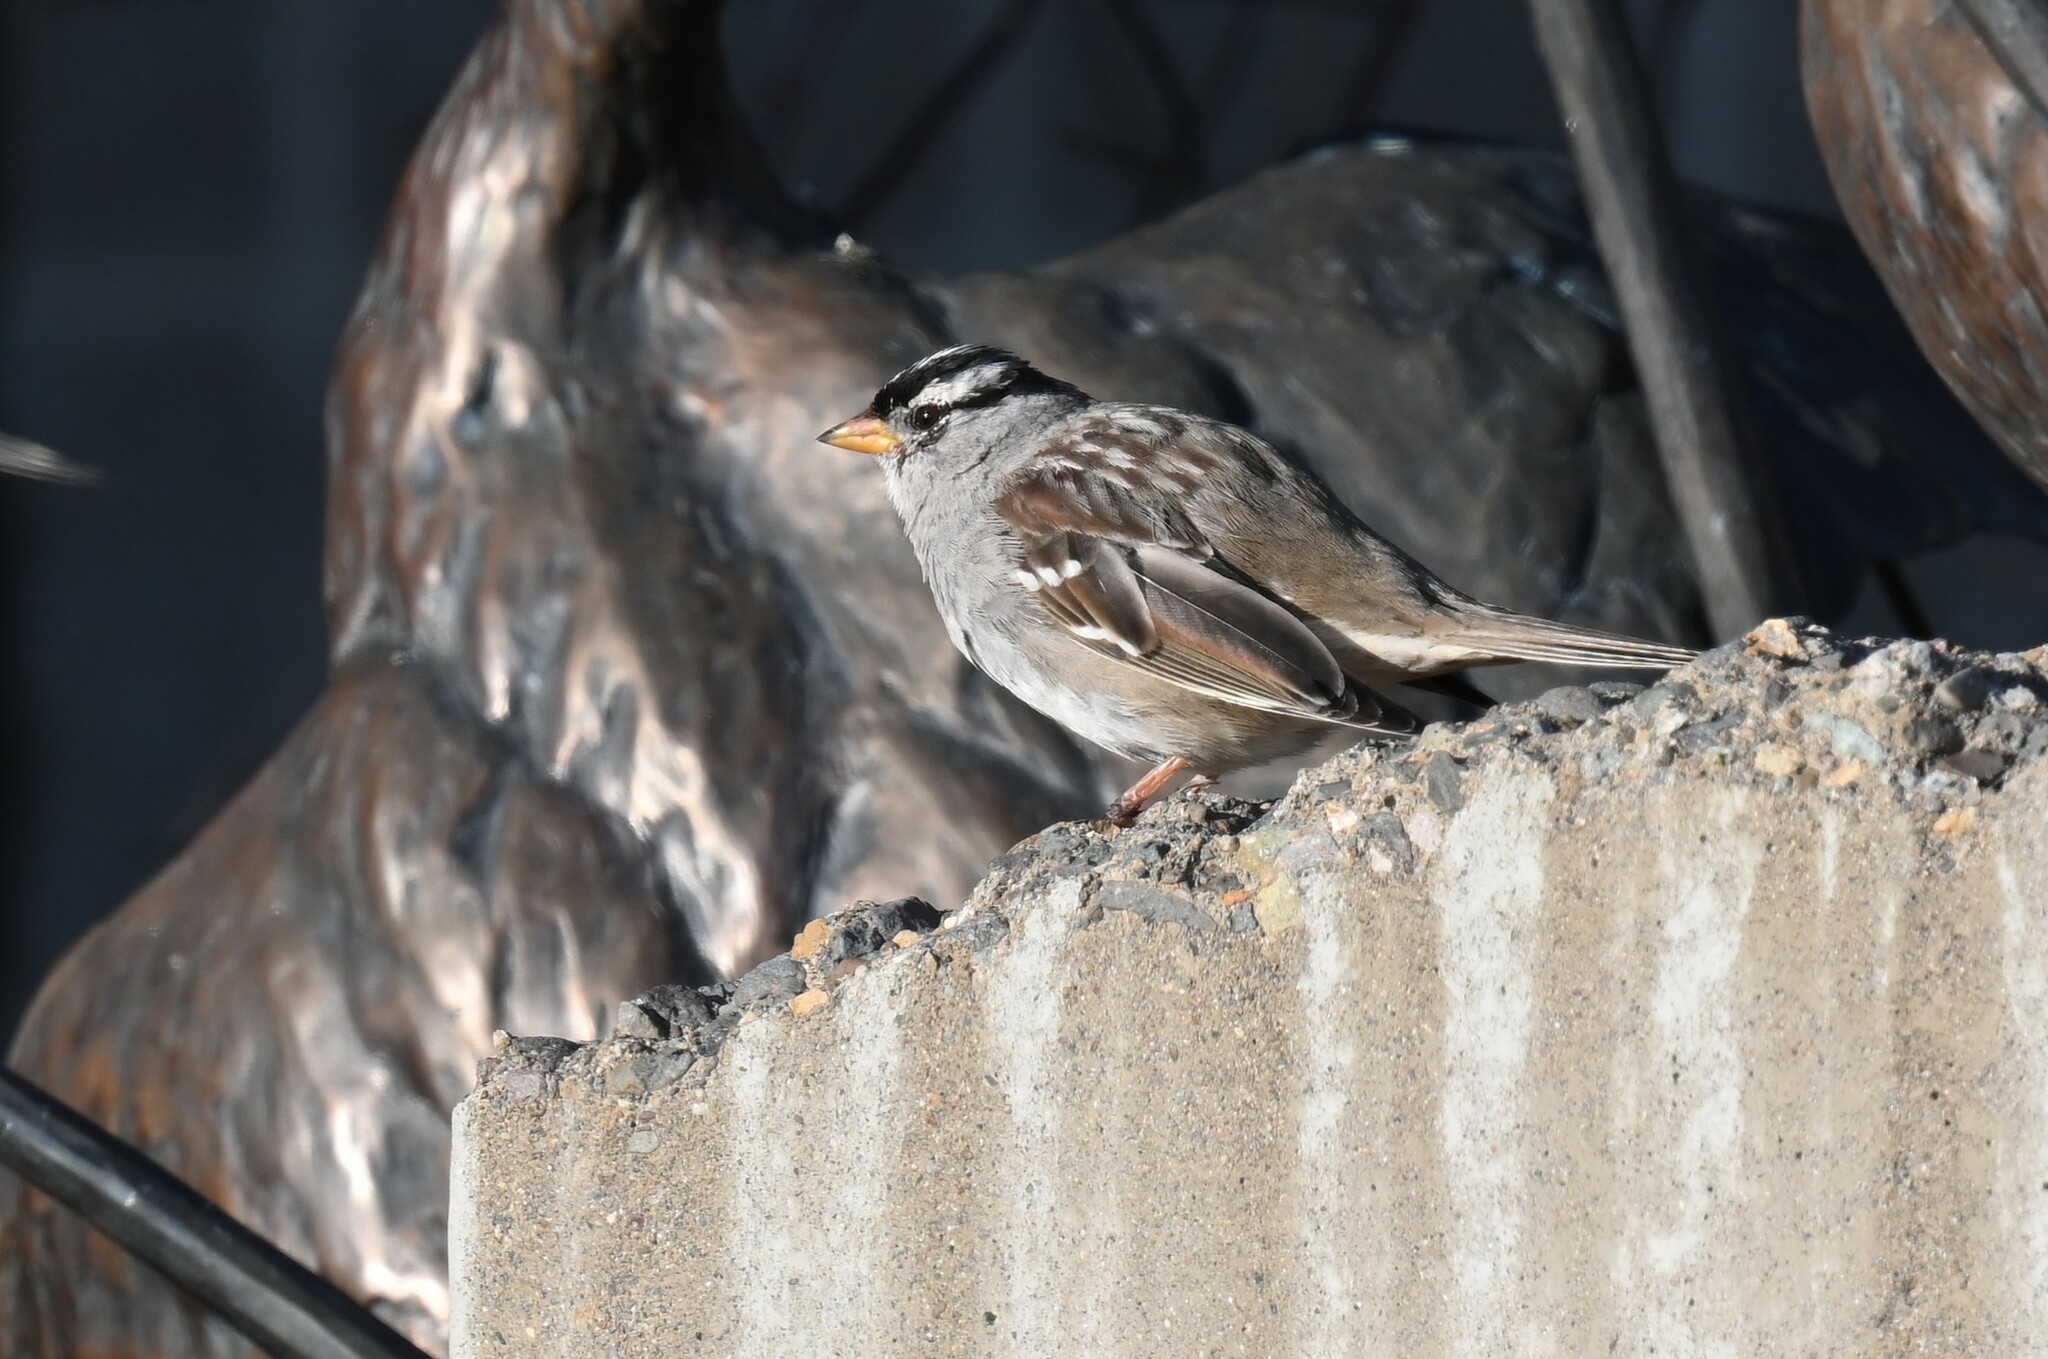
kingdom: Animalia
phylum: Chordata
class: Aves
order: Passeriformes
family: Passerellidae
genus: Zonotrichia
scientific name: Zonotrichia leucophrys
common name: White-crowned sparrow
